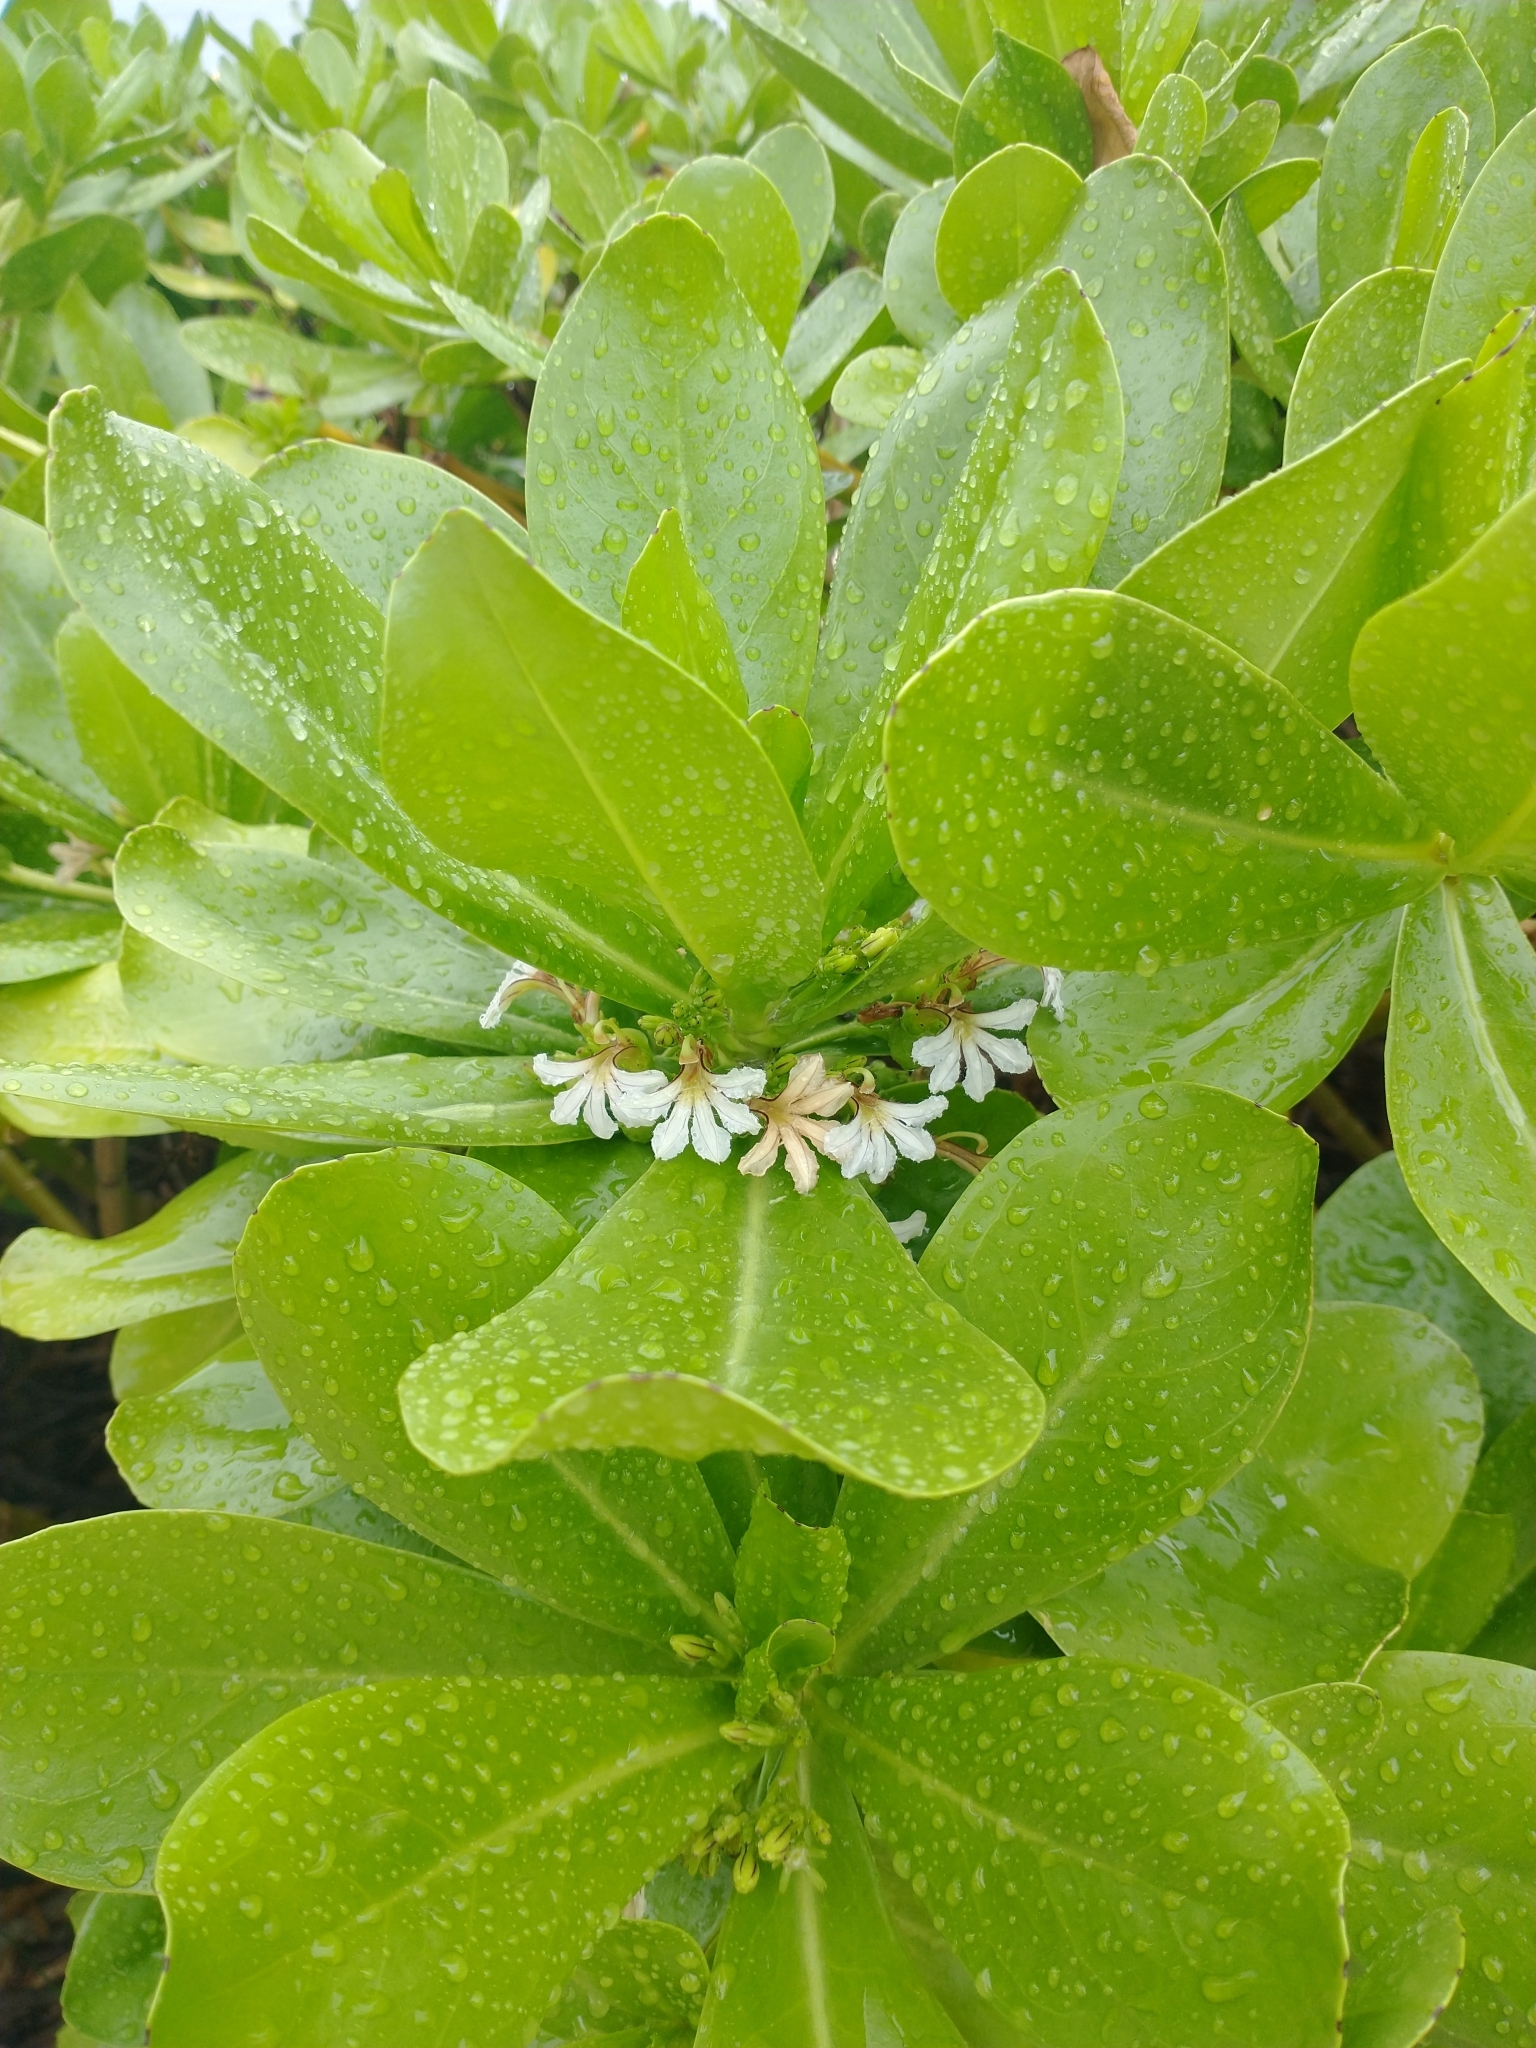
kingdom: Plantae
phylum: Tracheophyta
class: Magnoliopsida
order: Asterales
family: Goodeniaceae
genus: Scaevola
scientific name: Scaevola taccada
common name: Sea lettucetree
